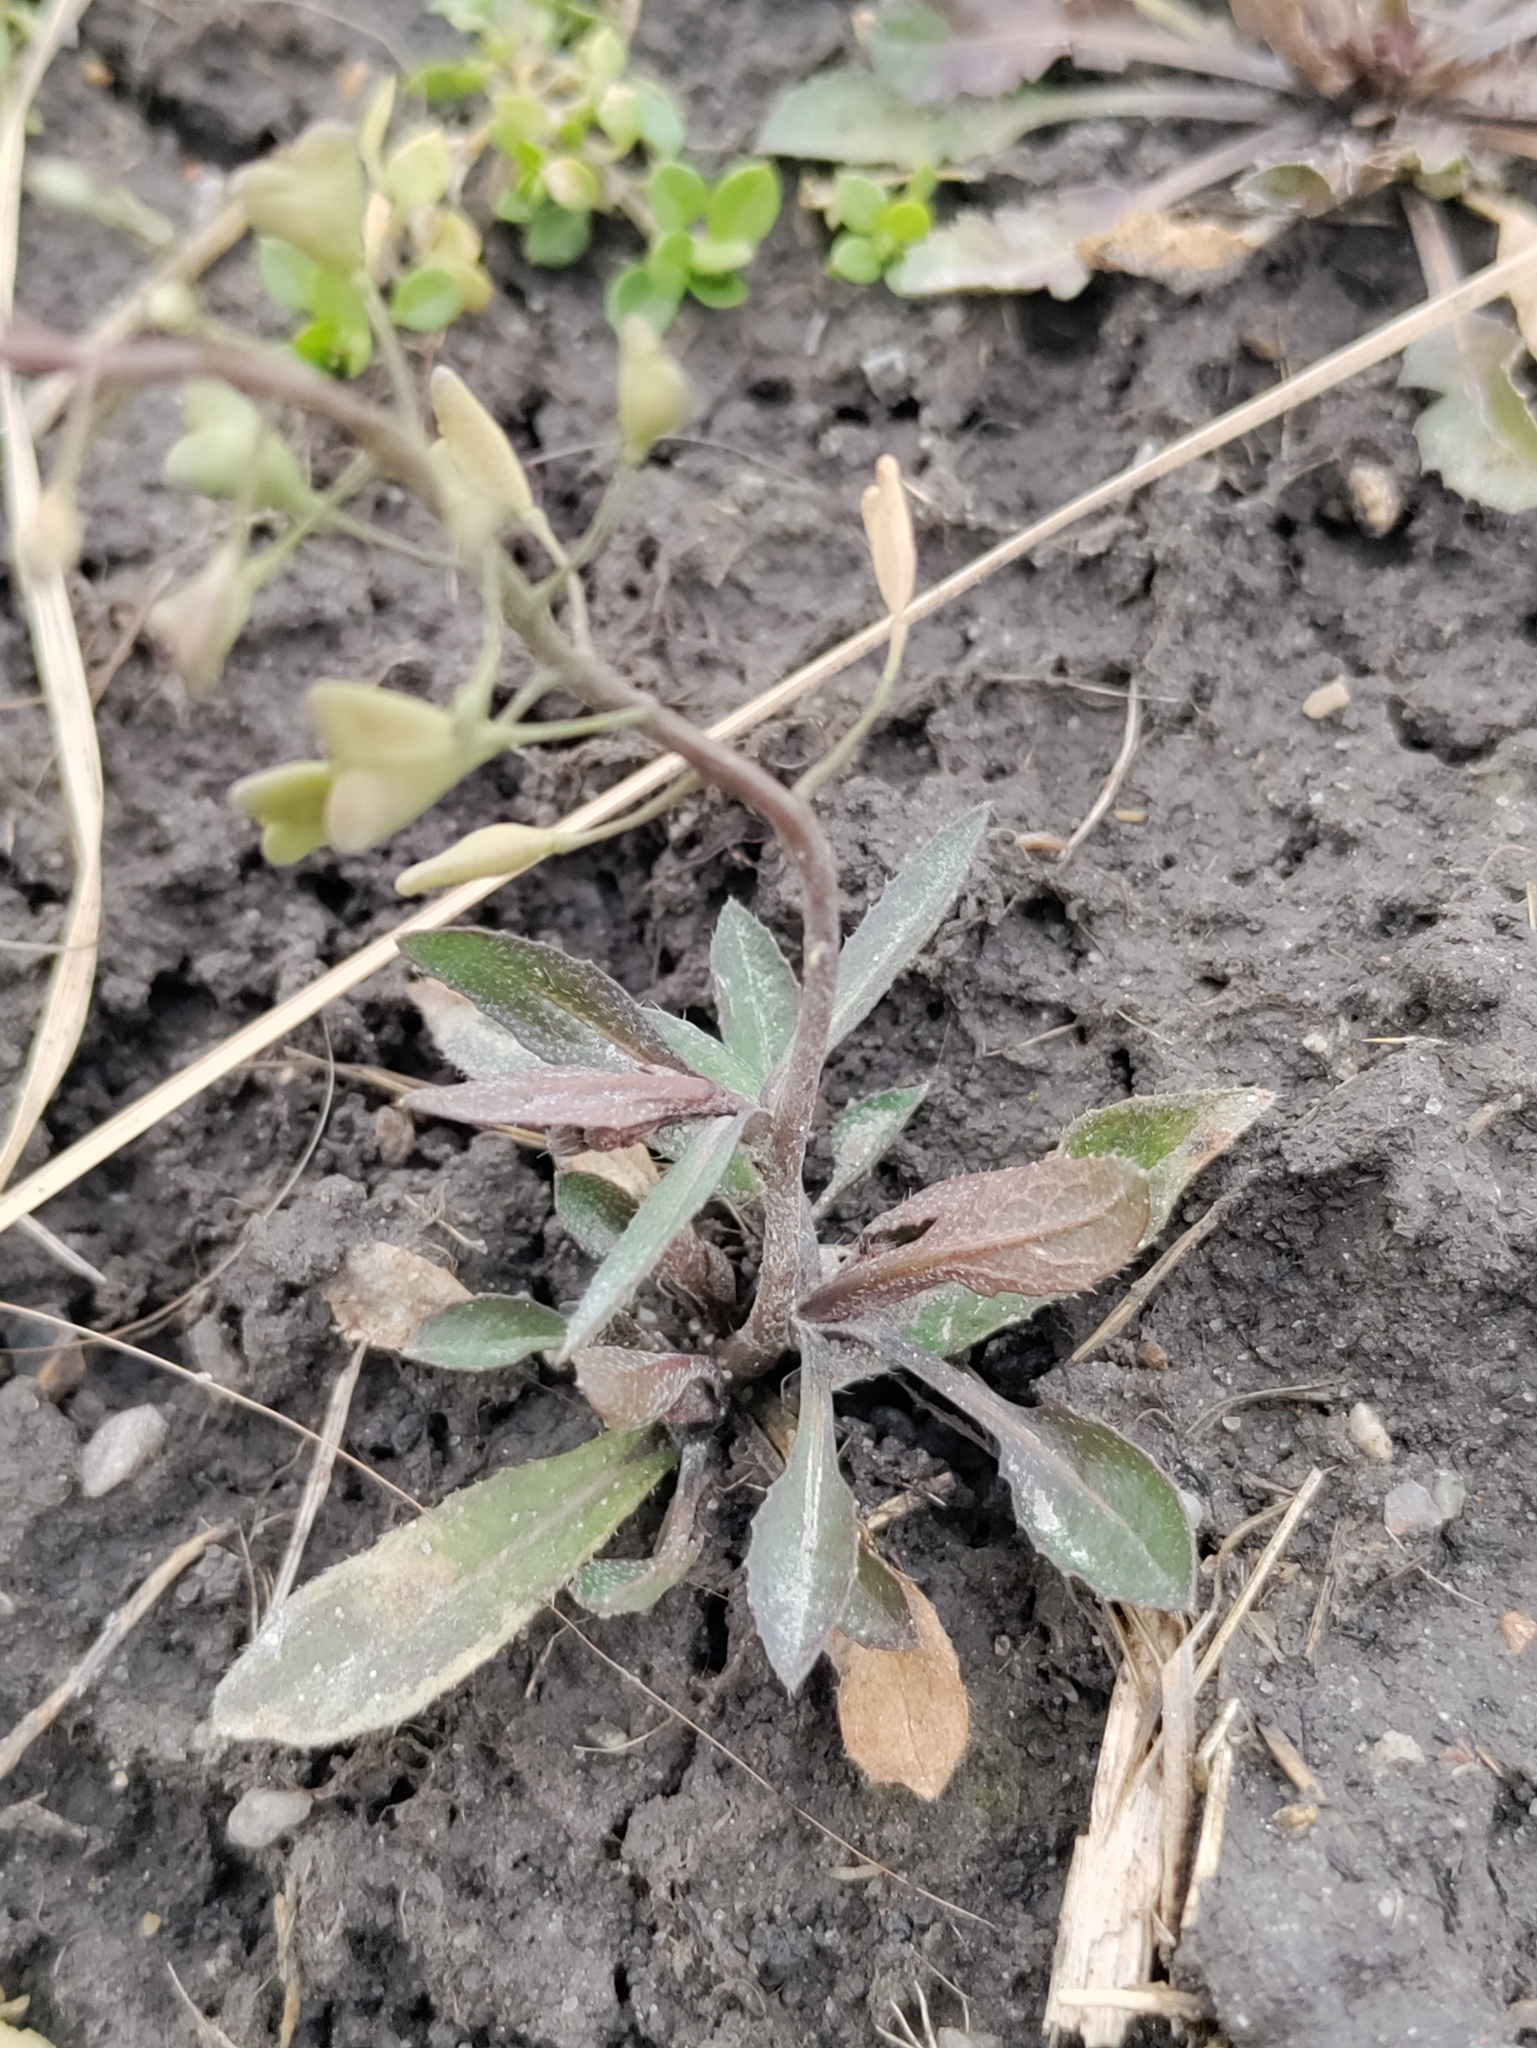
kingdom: Plantae
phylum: Tracheophyta
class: Magnoliopsida
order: Brassicales
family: Brassicaceae
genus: Capsella
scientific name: Capsella bursa-pastoris
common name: Shepherd's purse
